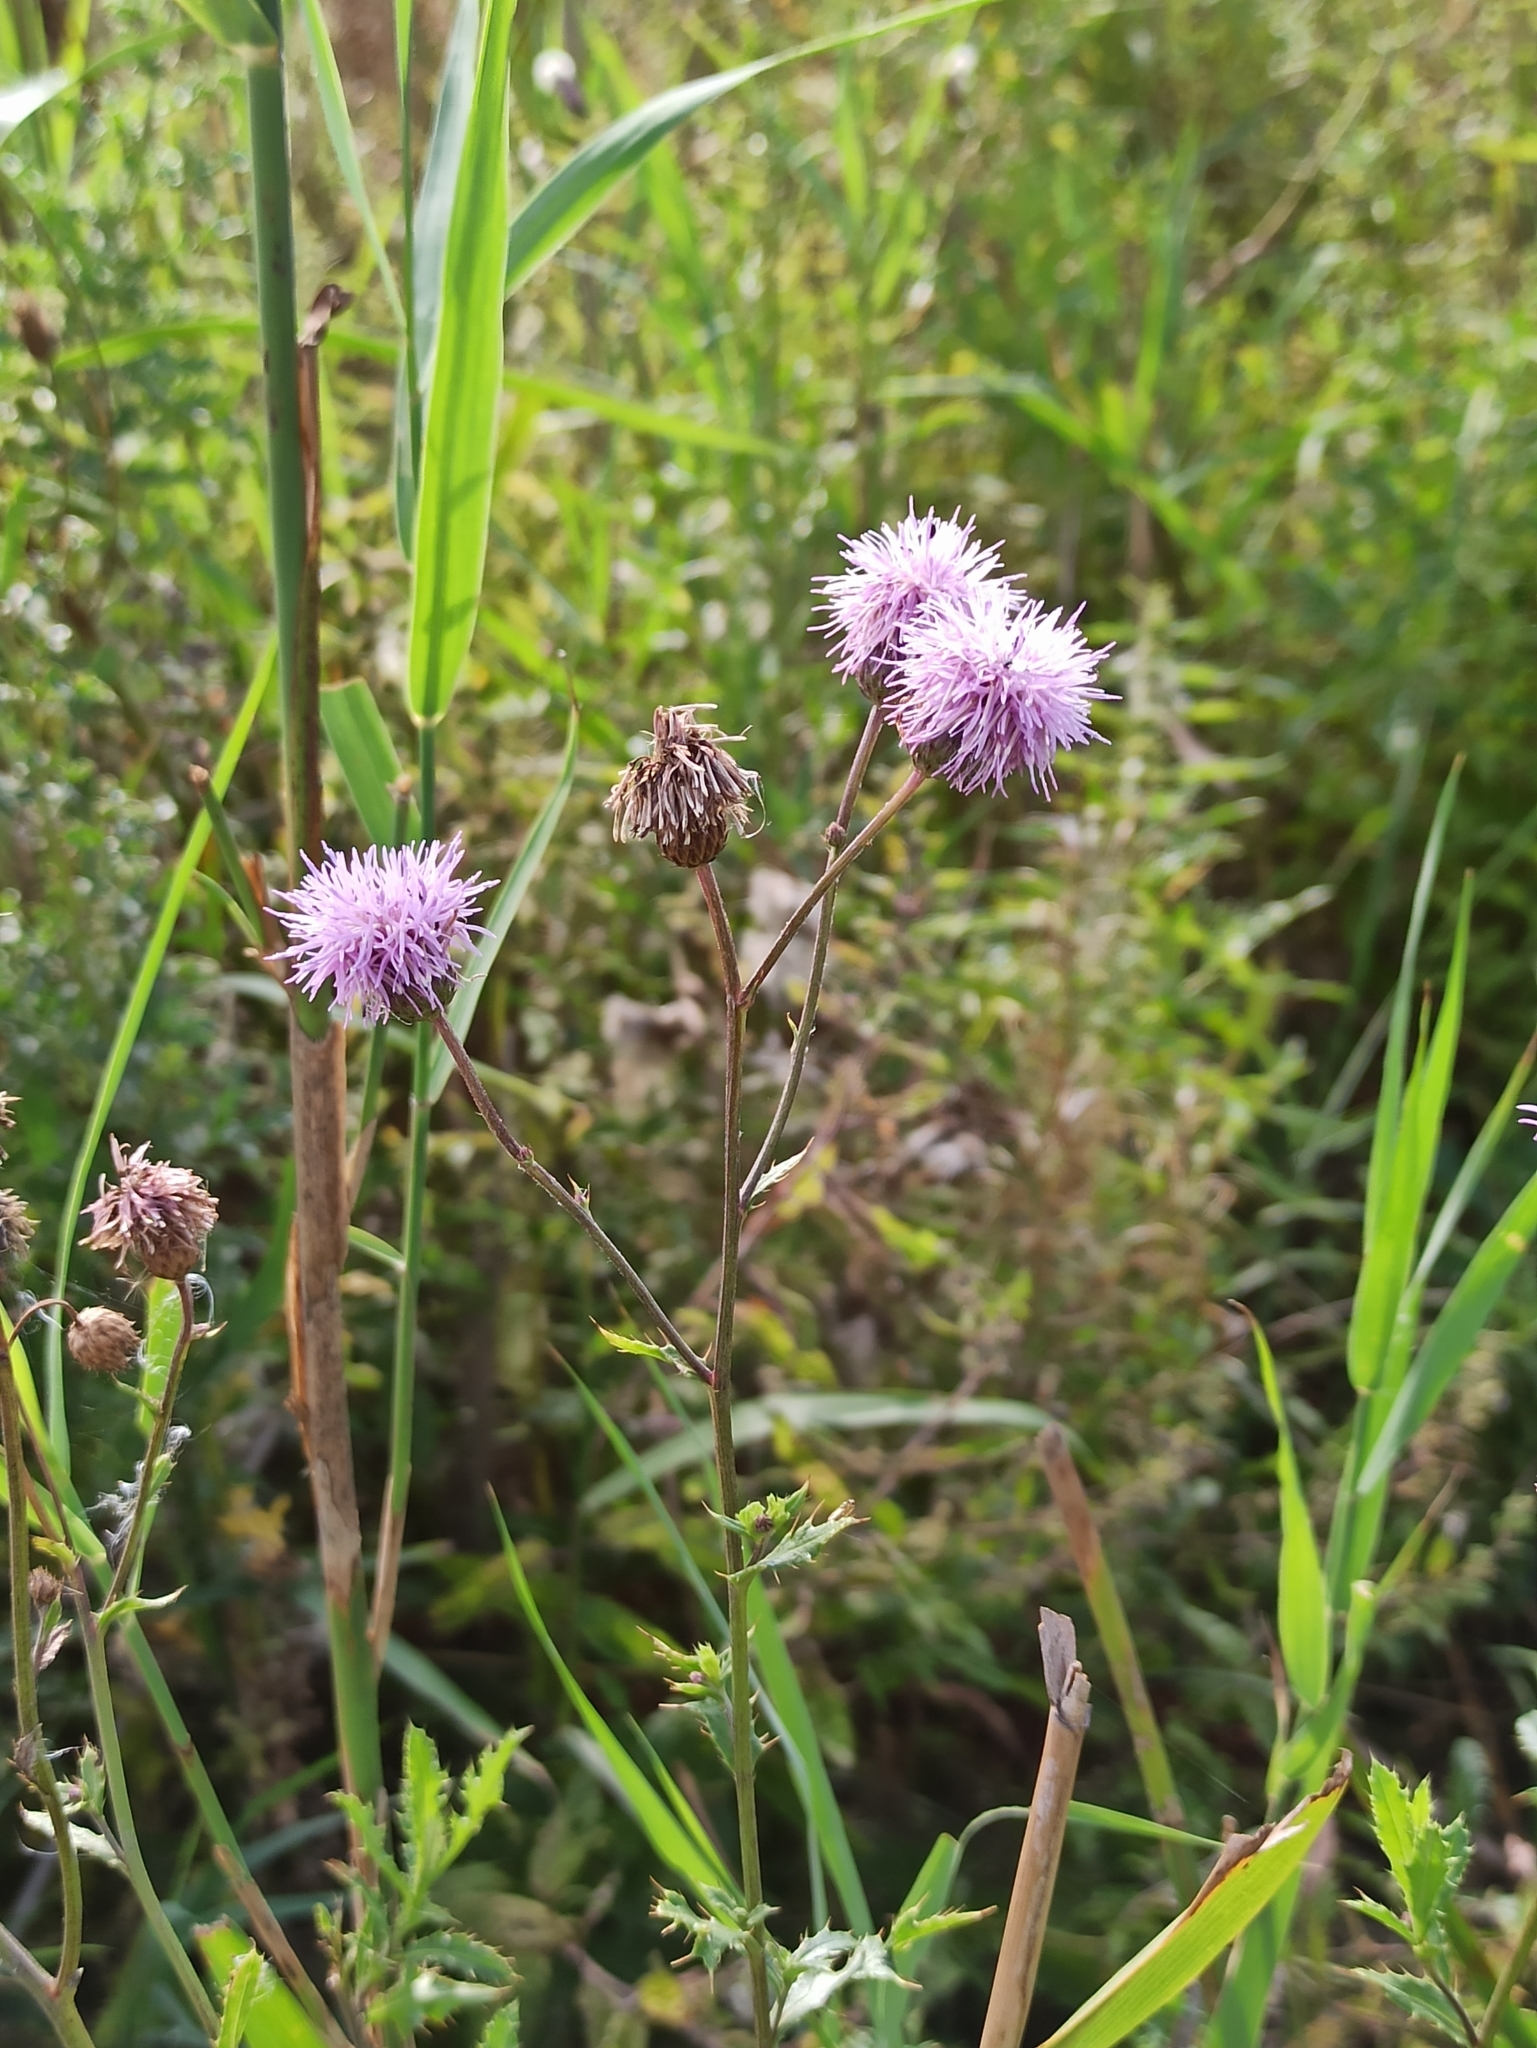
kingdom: Plantae
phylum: Tracheophyta
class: Magnoliopsida
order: Asterales
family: Asteraceae
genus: Cirsium
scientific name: Cirsium arvense
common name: Creeping thistle
